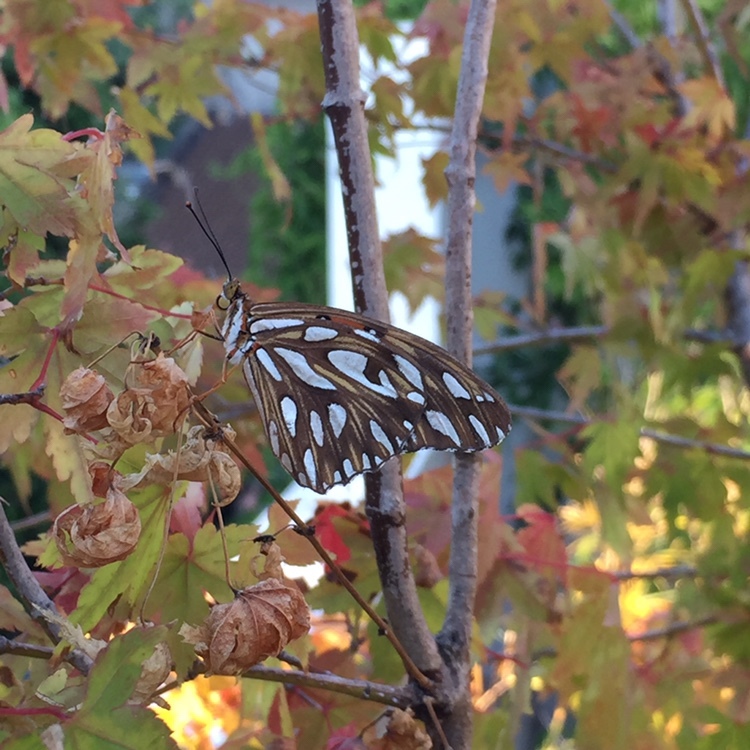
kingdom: Animalia
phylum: Arthropoda
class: Insecta
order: Lepidoptera
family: Nymphalidae
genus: Dione
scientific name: Dione vanillae
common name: Gulf fritillary
